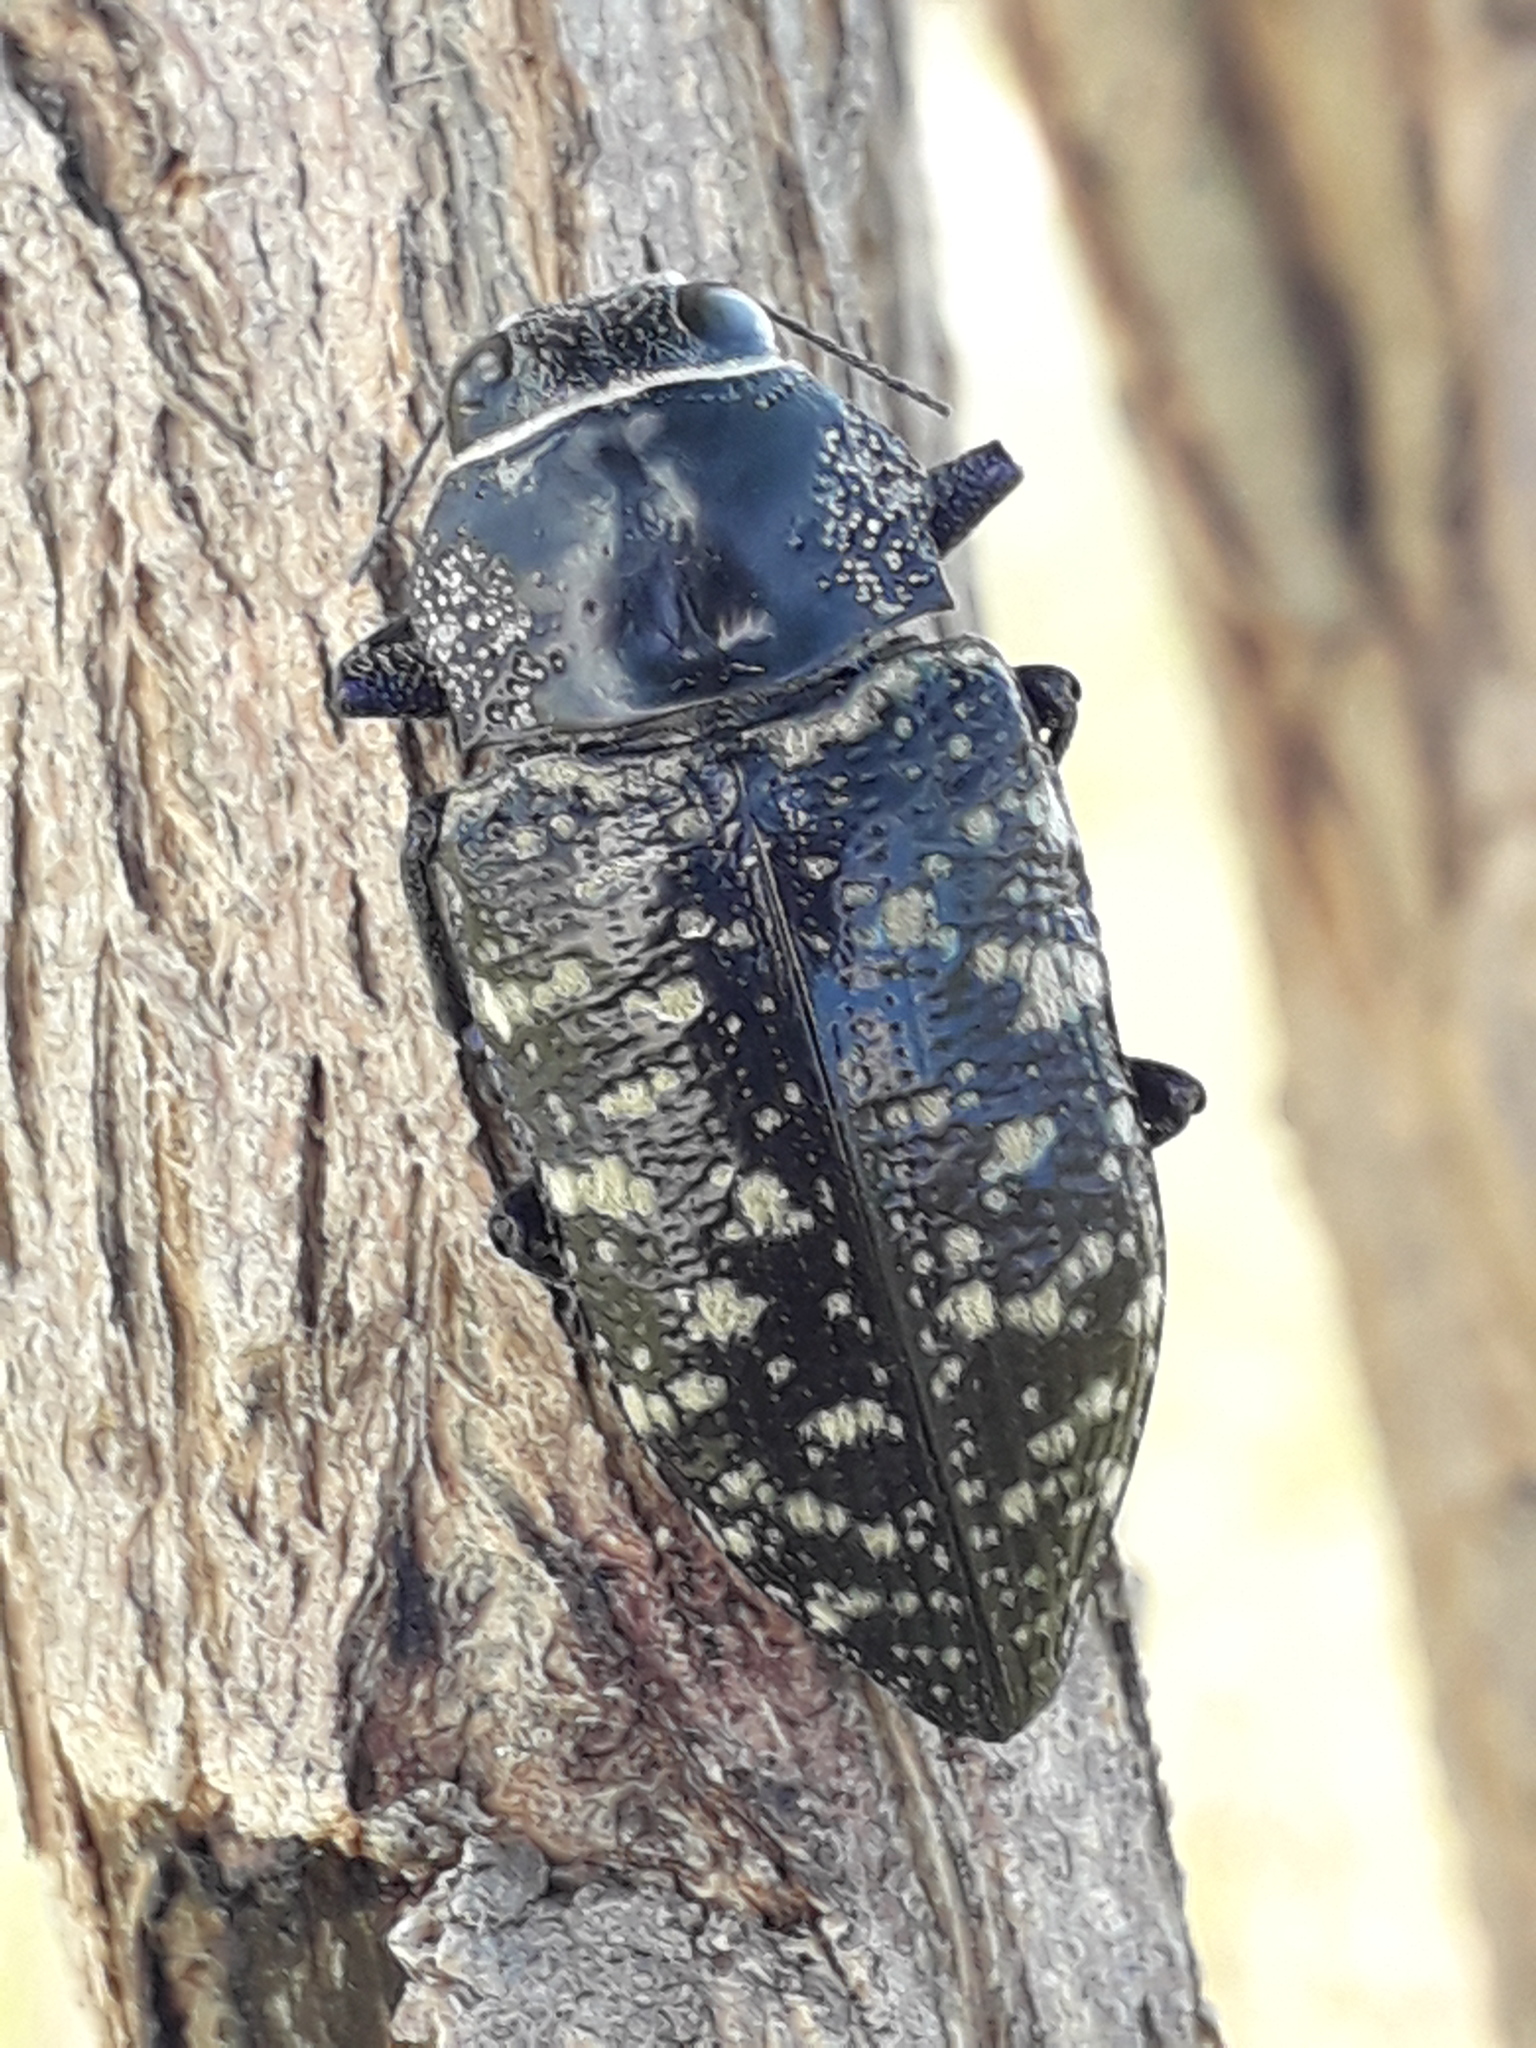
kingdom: Animalia
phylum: Arthropoda
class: Insecta
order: Coleoptera
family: Buprestidae
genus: Lampetis
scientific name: Lampetis dilaticollis
